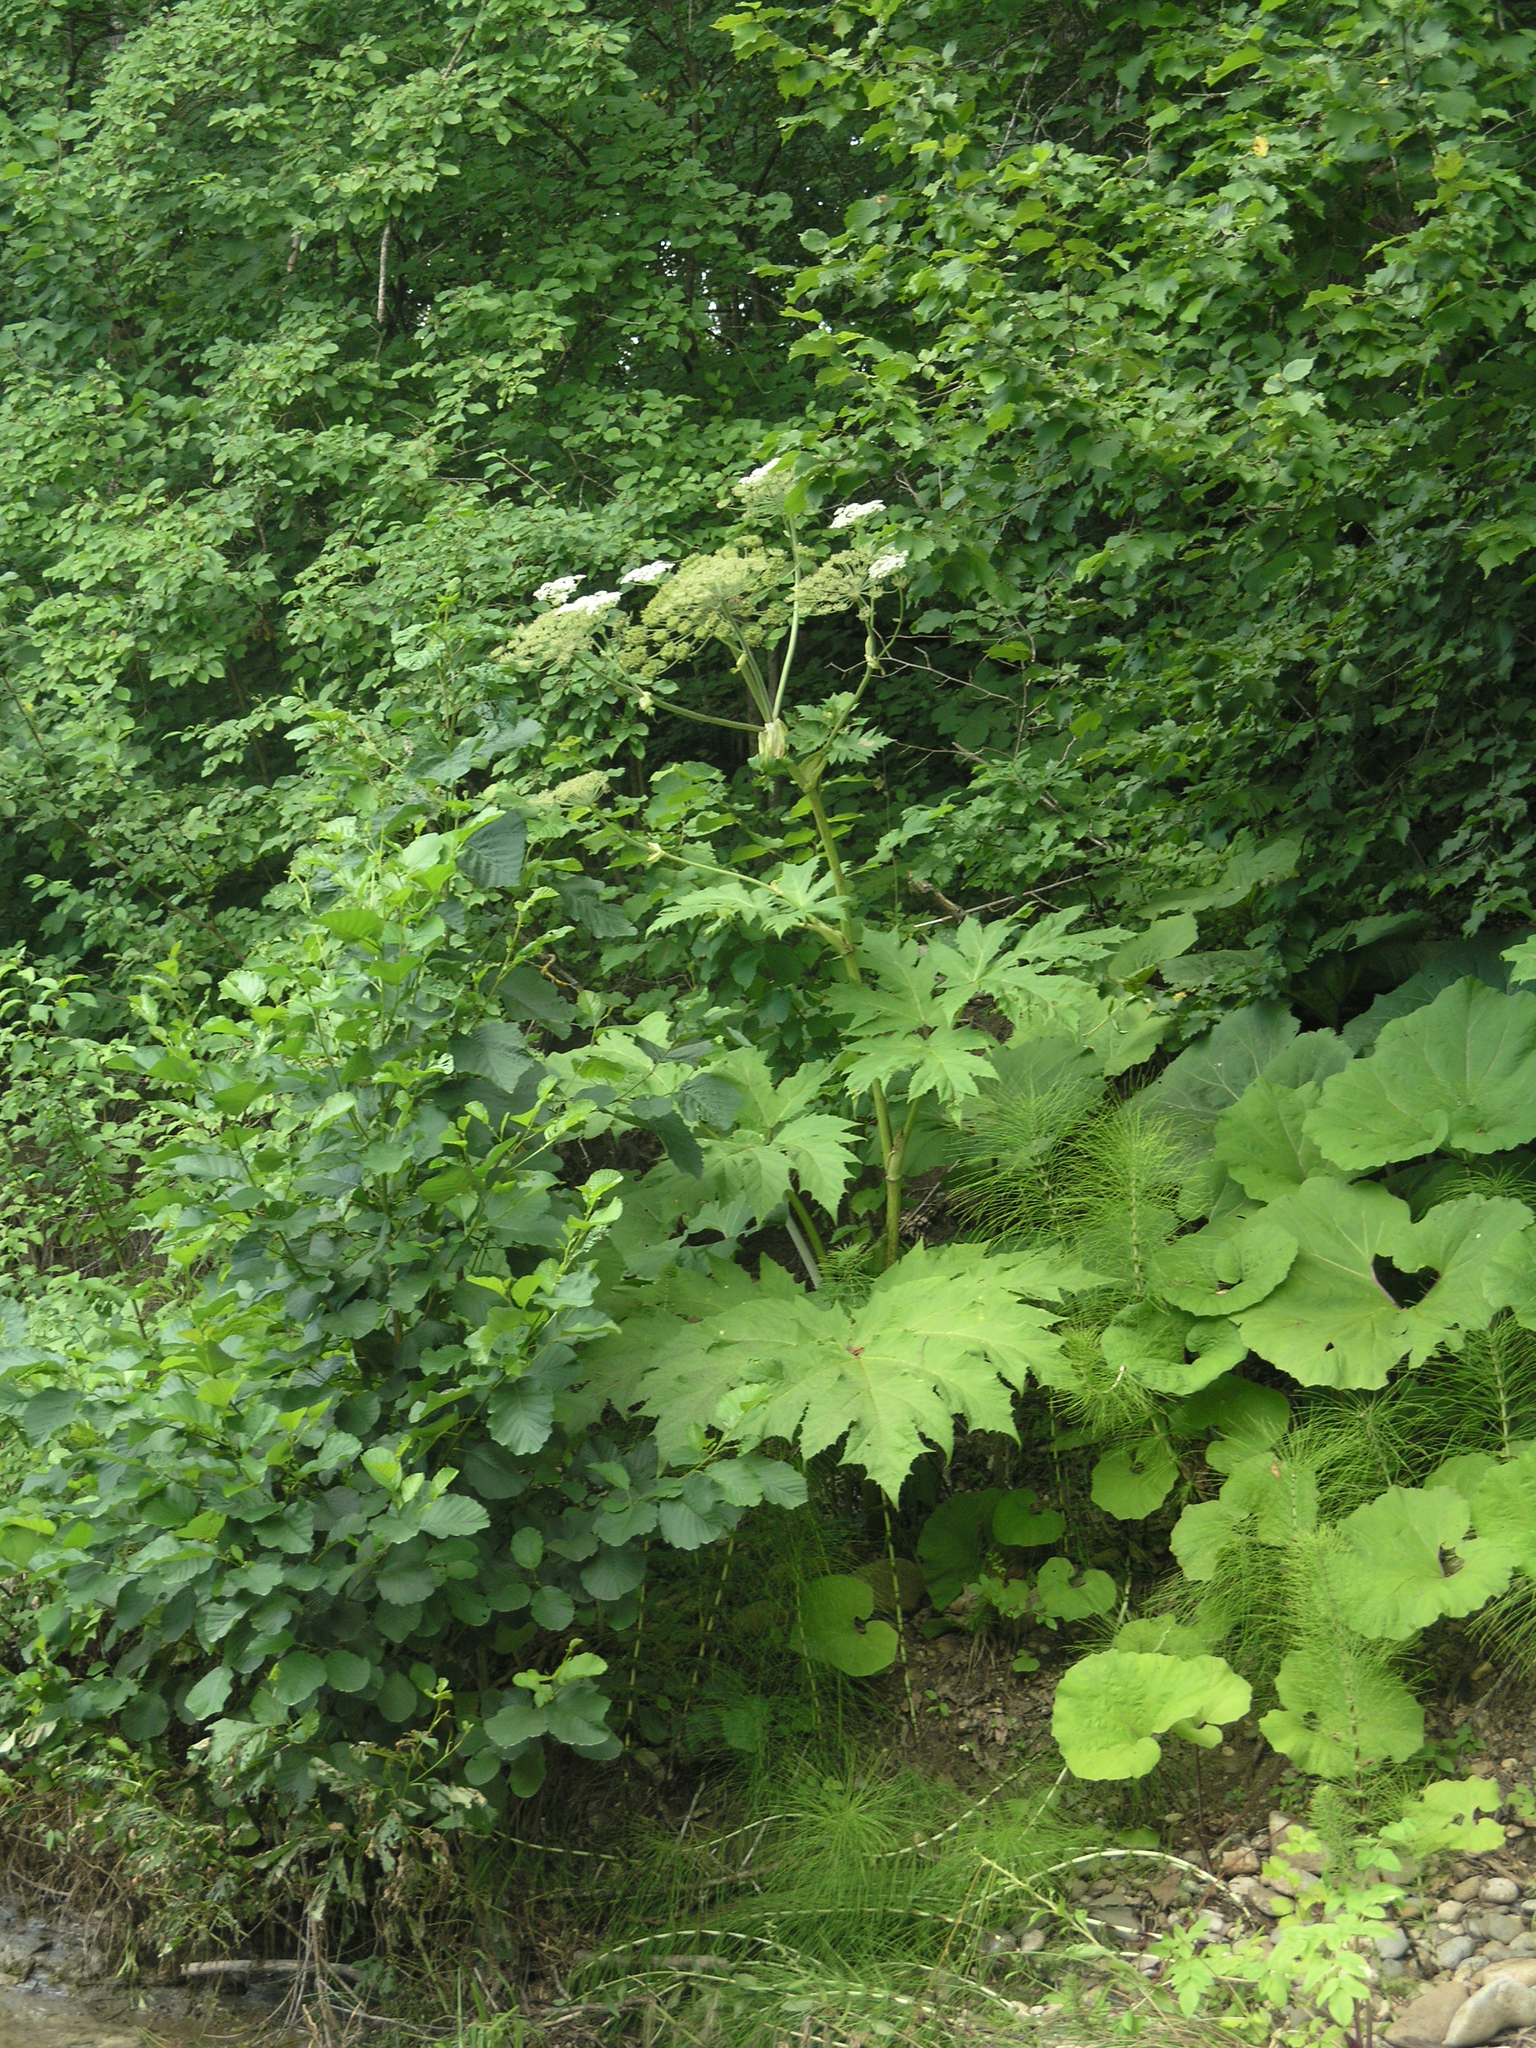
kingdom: Plantae
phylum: Tracheophyta
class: Magnoliopsida
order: Apiales
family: Apiaceae
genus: Heracleum
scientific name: Heracleum sosnowskyi
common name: Sosnowsky's hogweed
